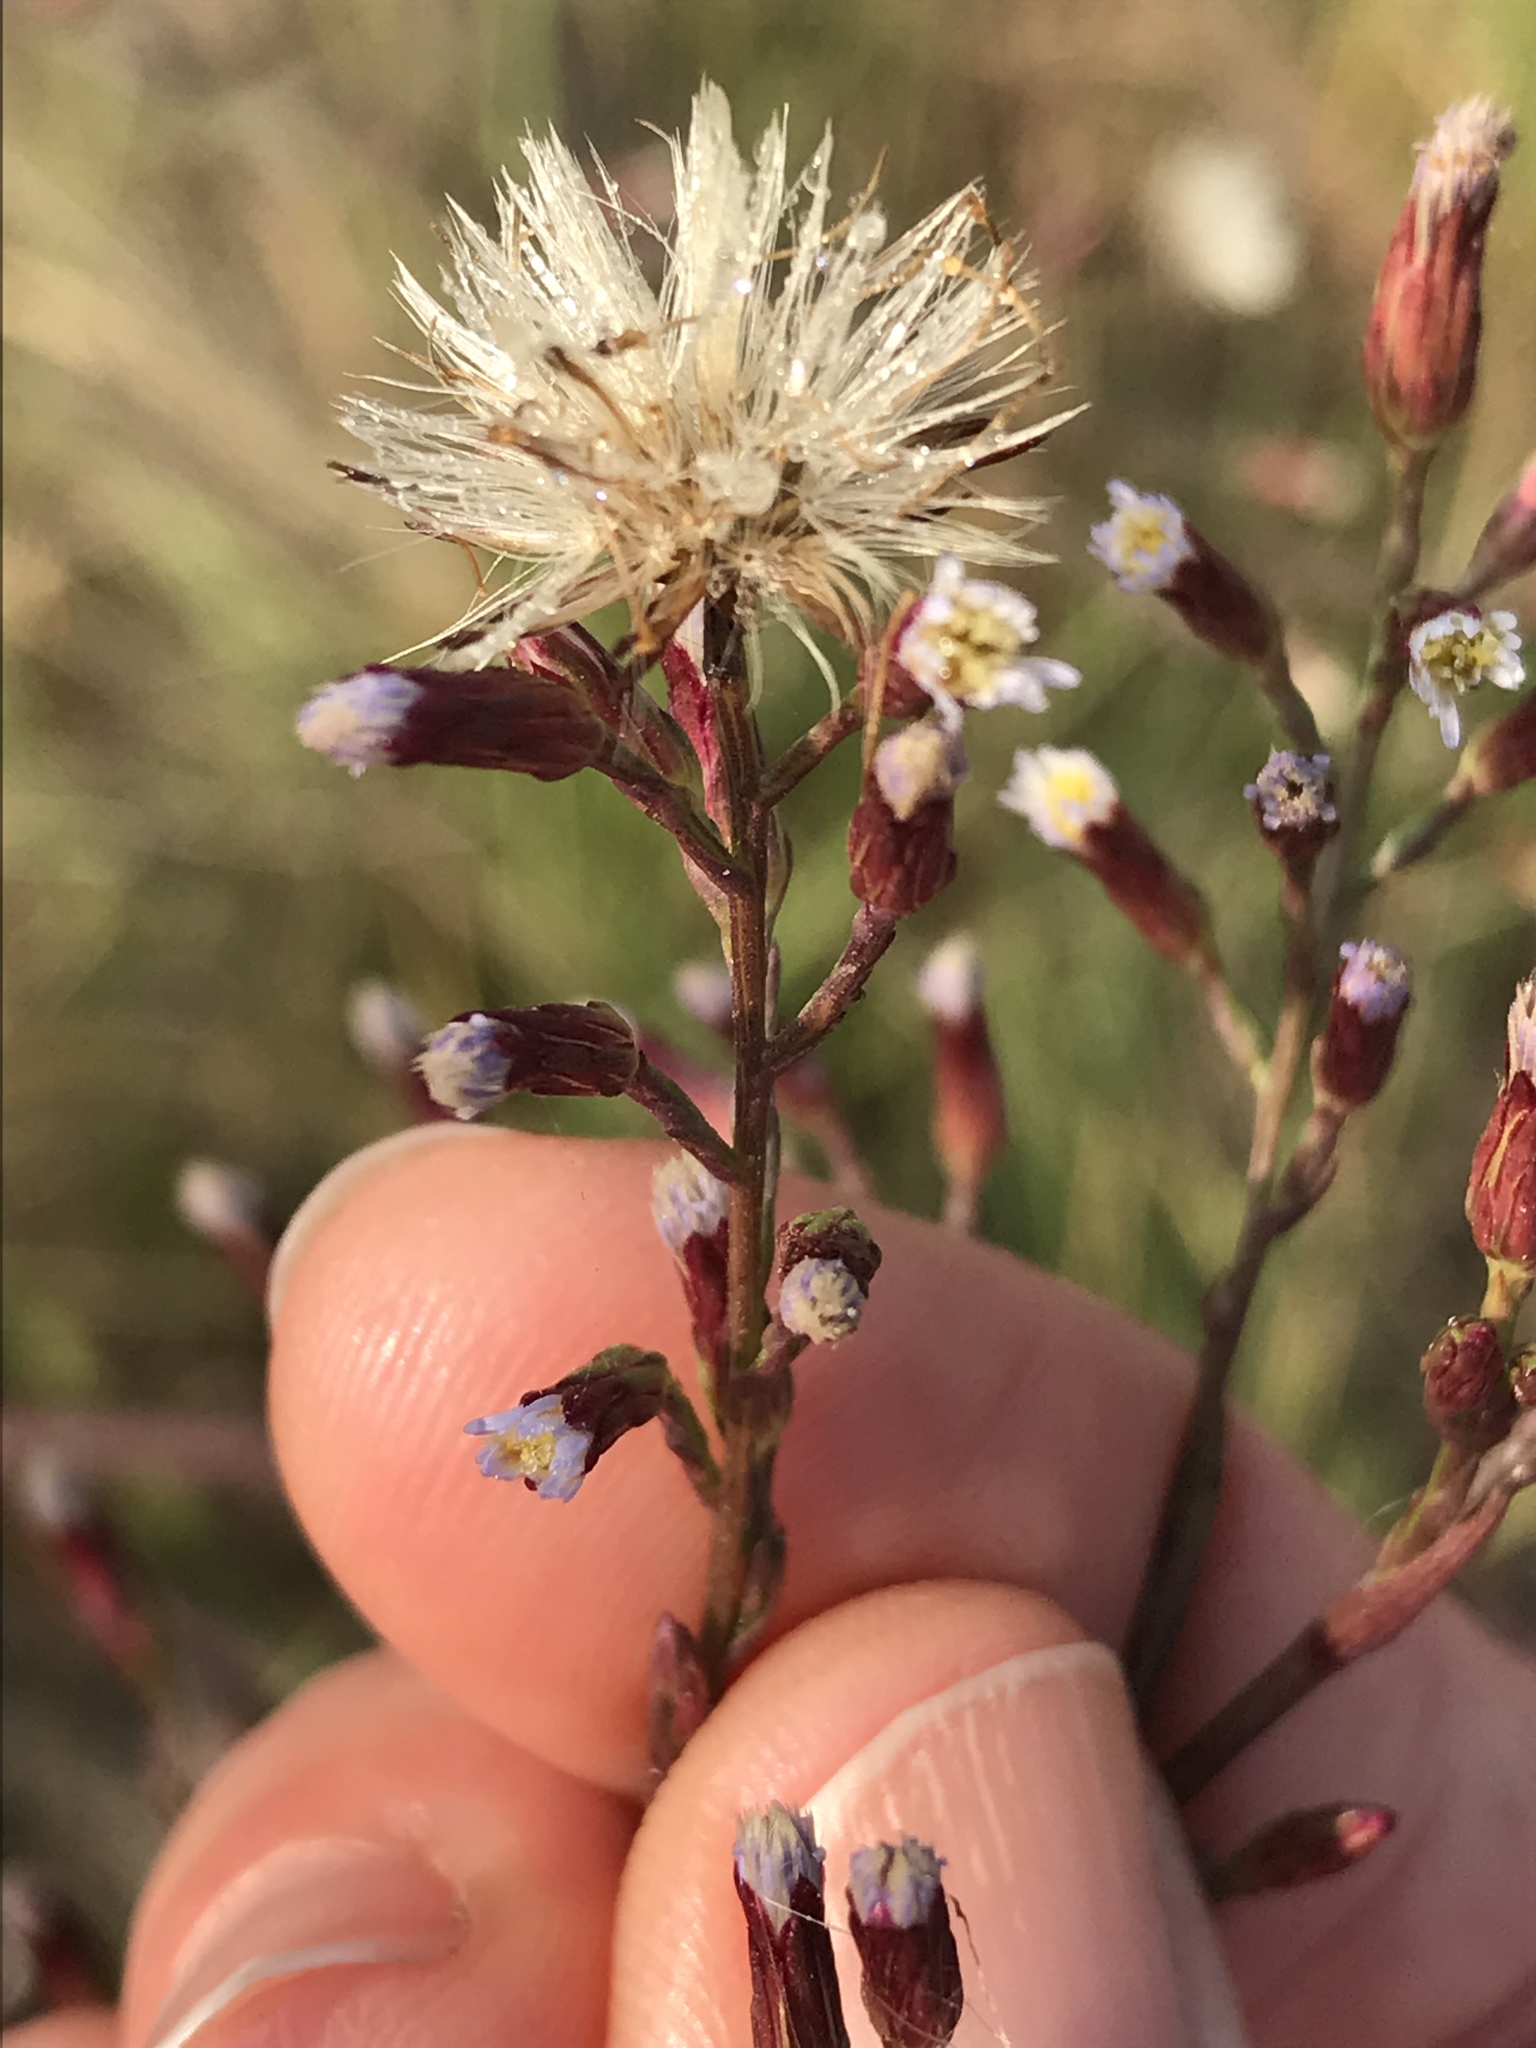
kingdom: Plantae
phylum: Tracheophyta
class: Magnoliopsida
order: Asterales
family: Asteraceae
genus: Symphyotrichum
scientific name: Symphyotrichum subulatum
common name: Annual saltmarsh aster
